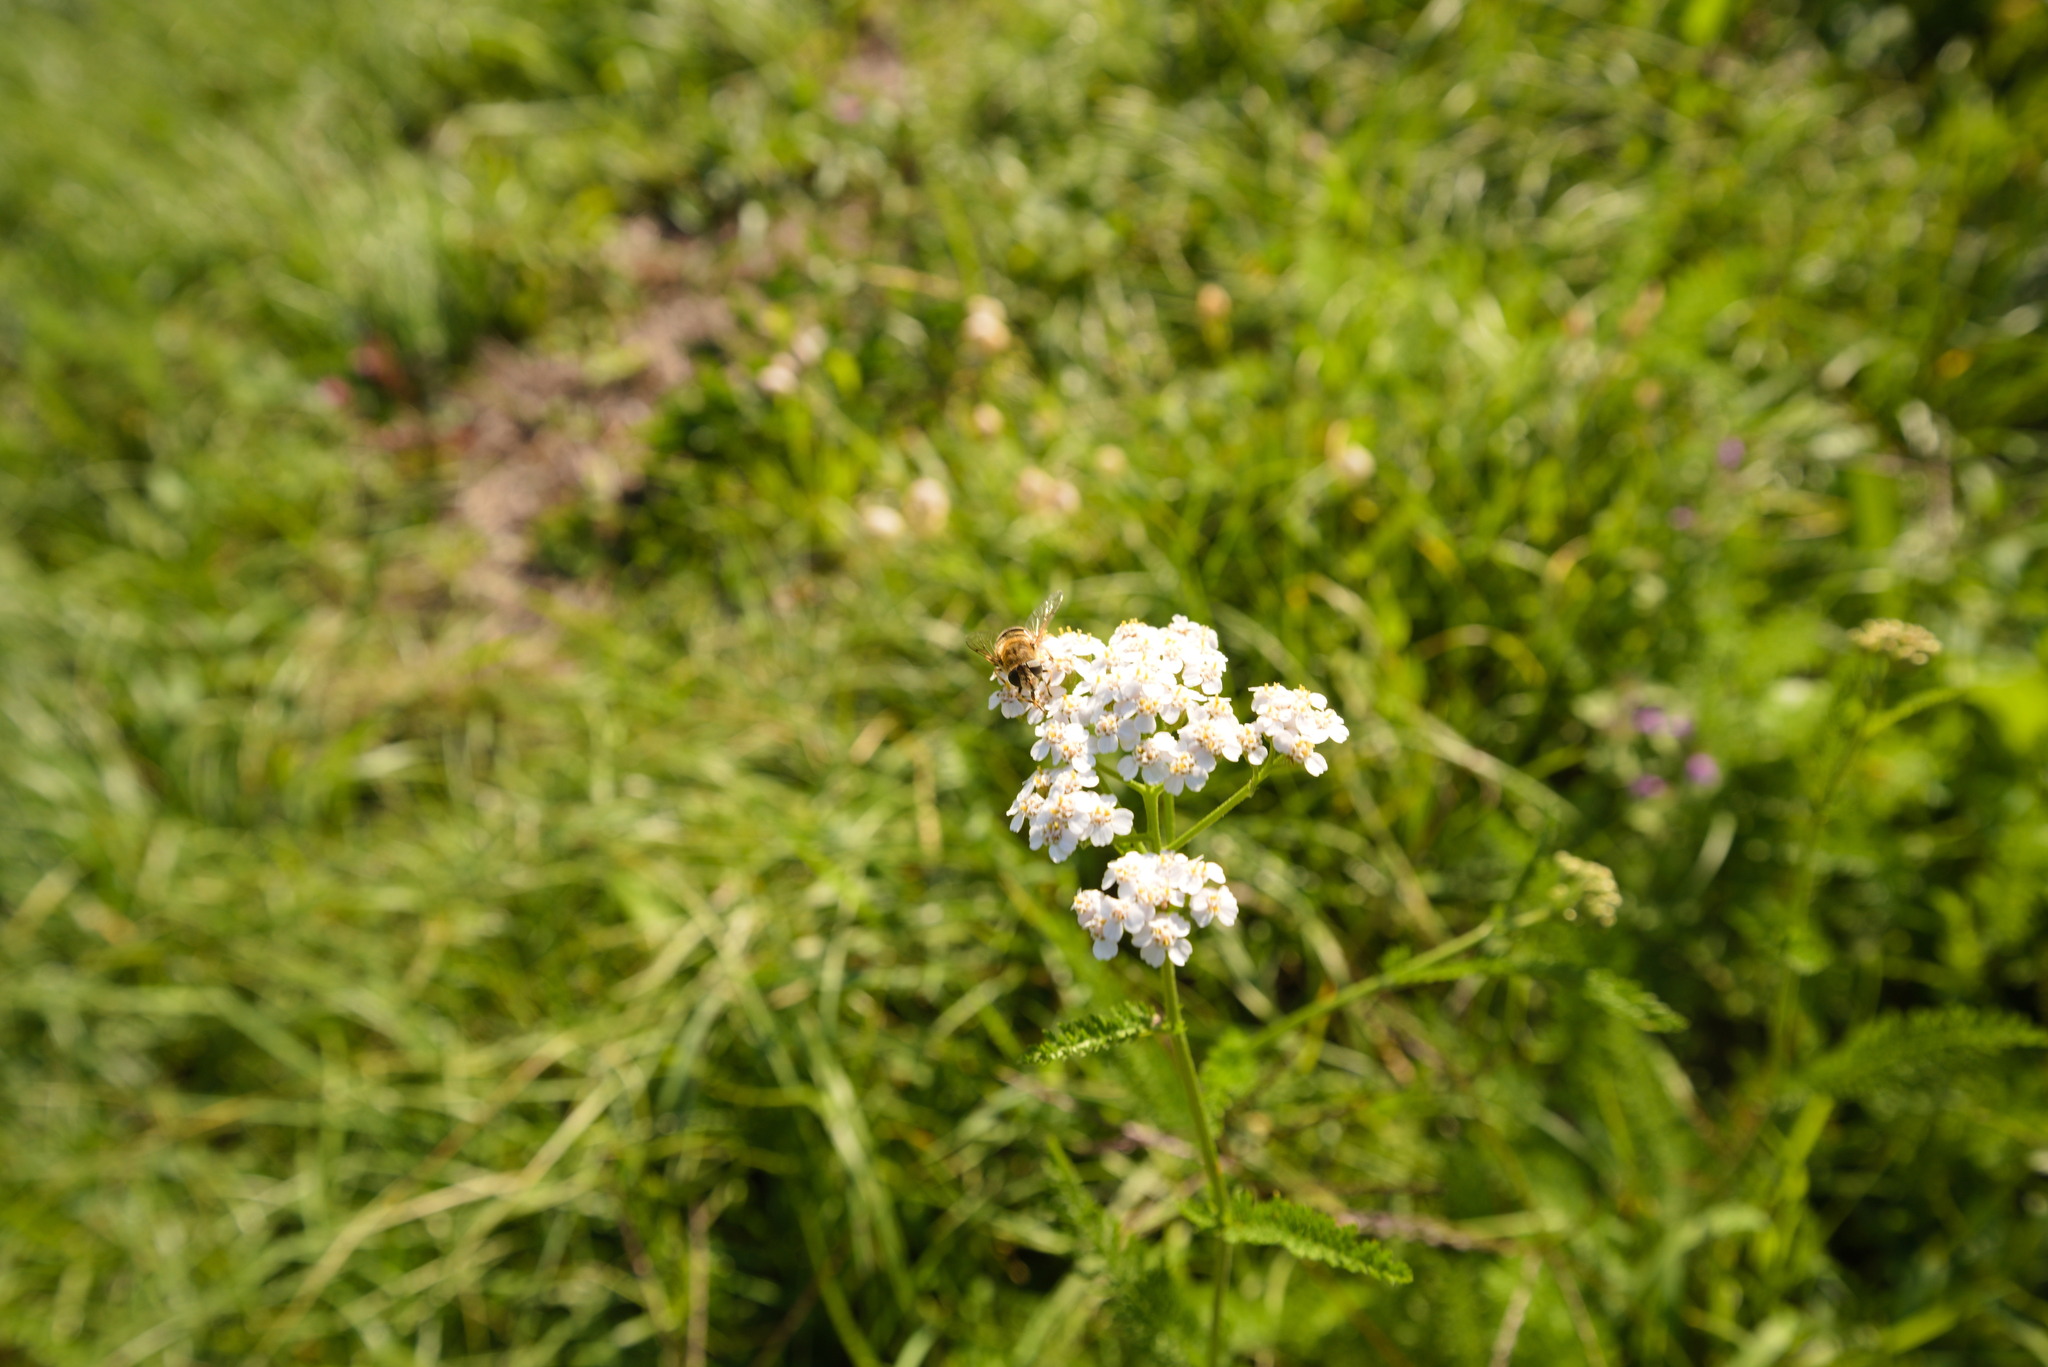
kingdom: Animalia
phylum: Arthropoda
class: Insecta
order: Diptera
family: Syrphidae
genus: Eristalis
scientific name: Eristalis nemorum
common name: Orange-spined drone fly
